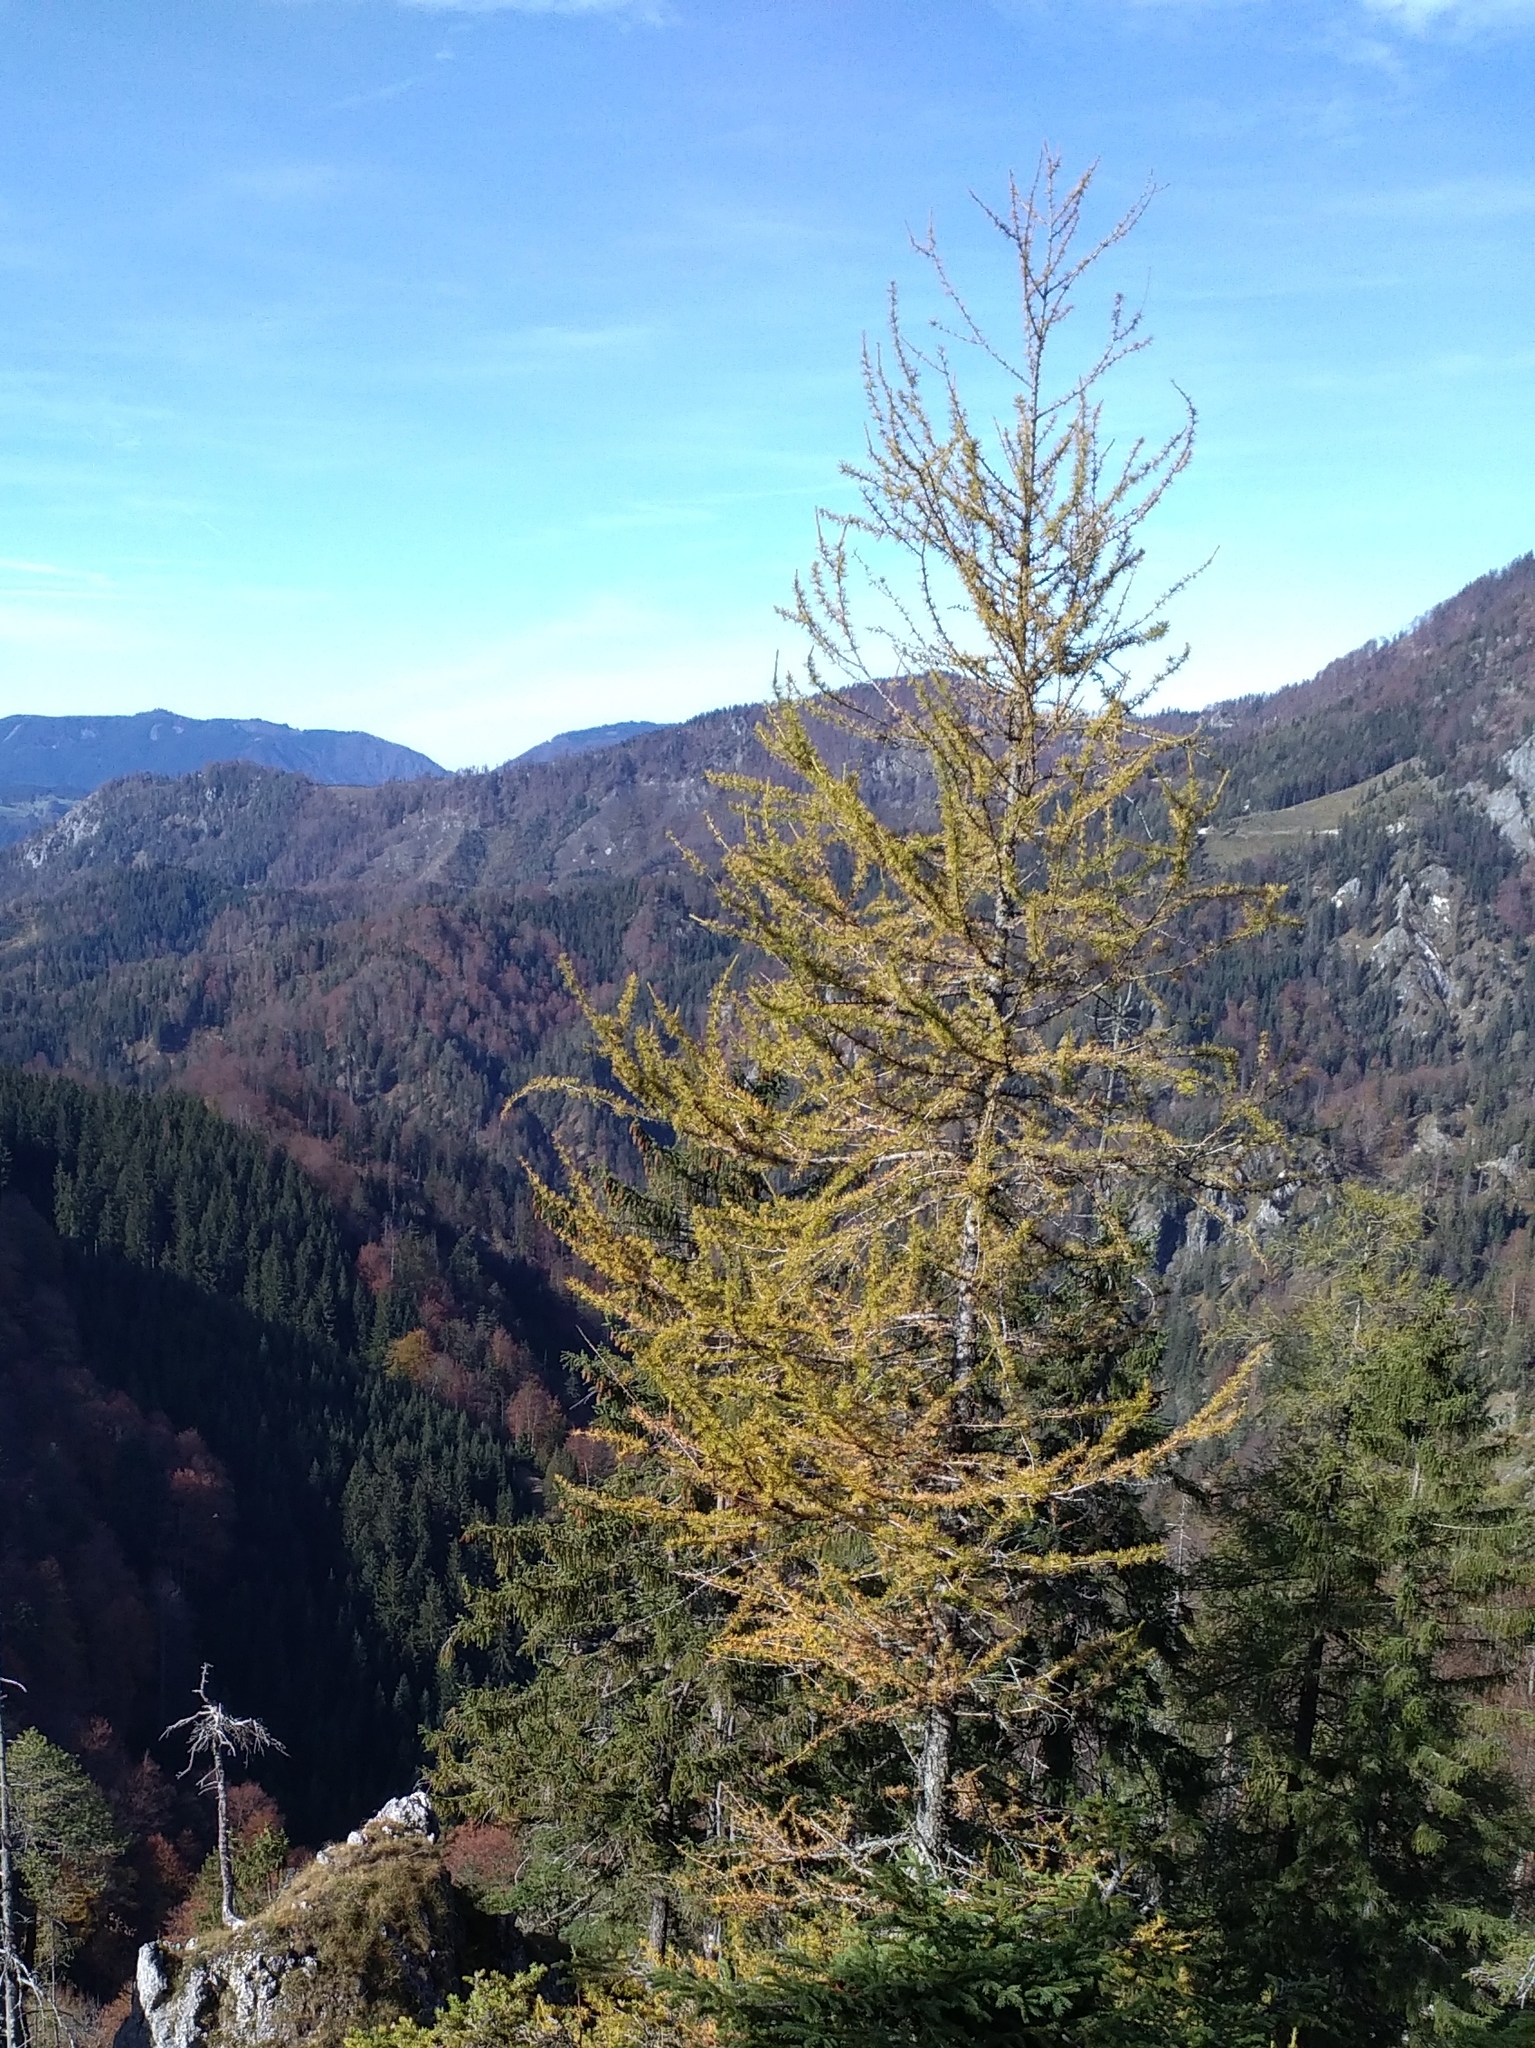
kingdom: Plantae
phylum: Tracheophyta
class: Pinopsida
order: Pinales
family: Pinaceae
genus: Larix
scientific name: Larix decidua
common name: European larch
